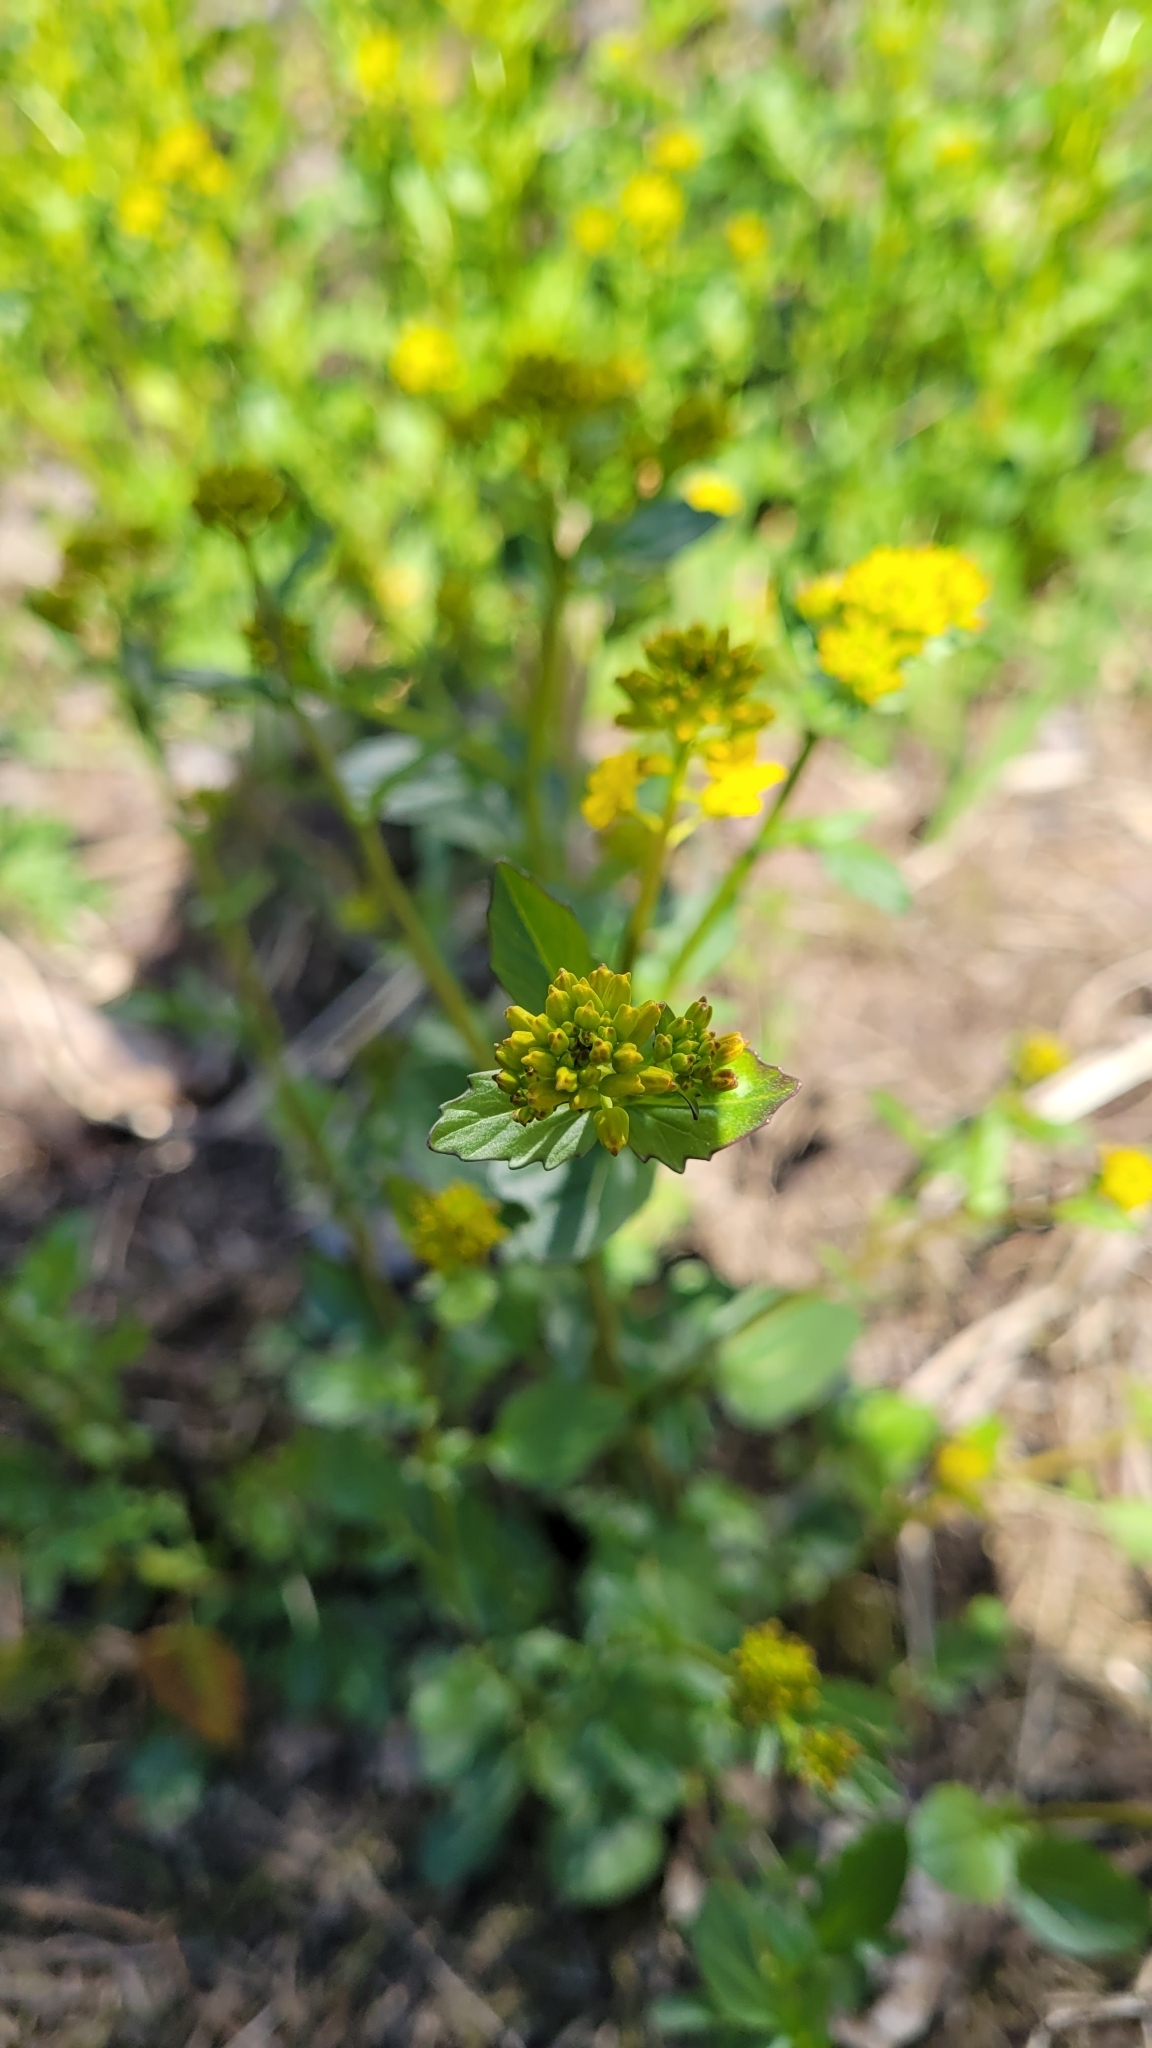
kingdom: Plantae
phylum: Tracheophyta
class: Magnoliopsida
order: Brassicales
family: Brassicaceae
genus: Barbarea
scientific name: Barbarea vulgaris
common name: Cressy-greens
